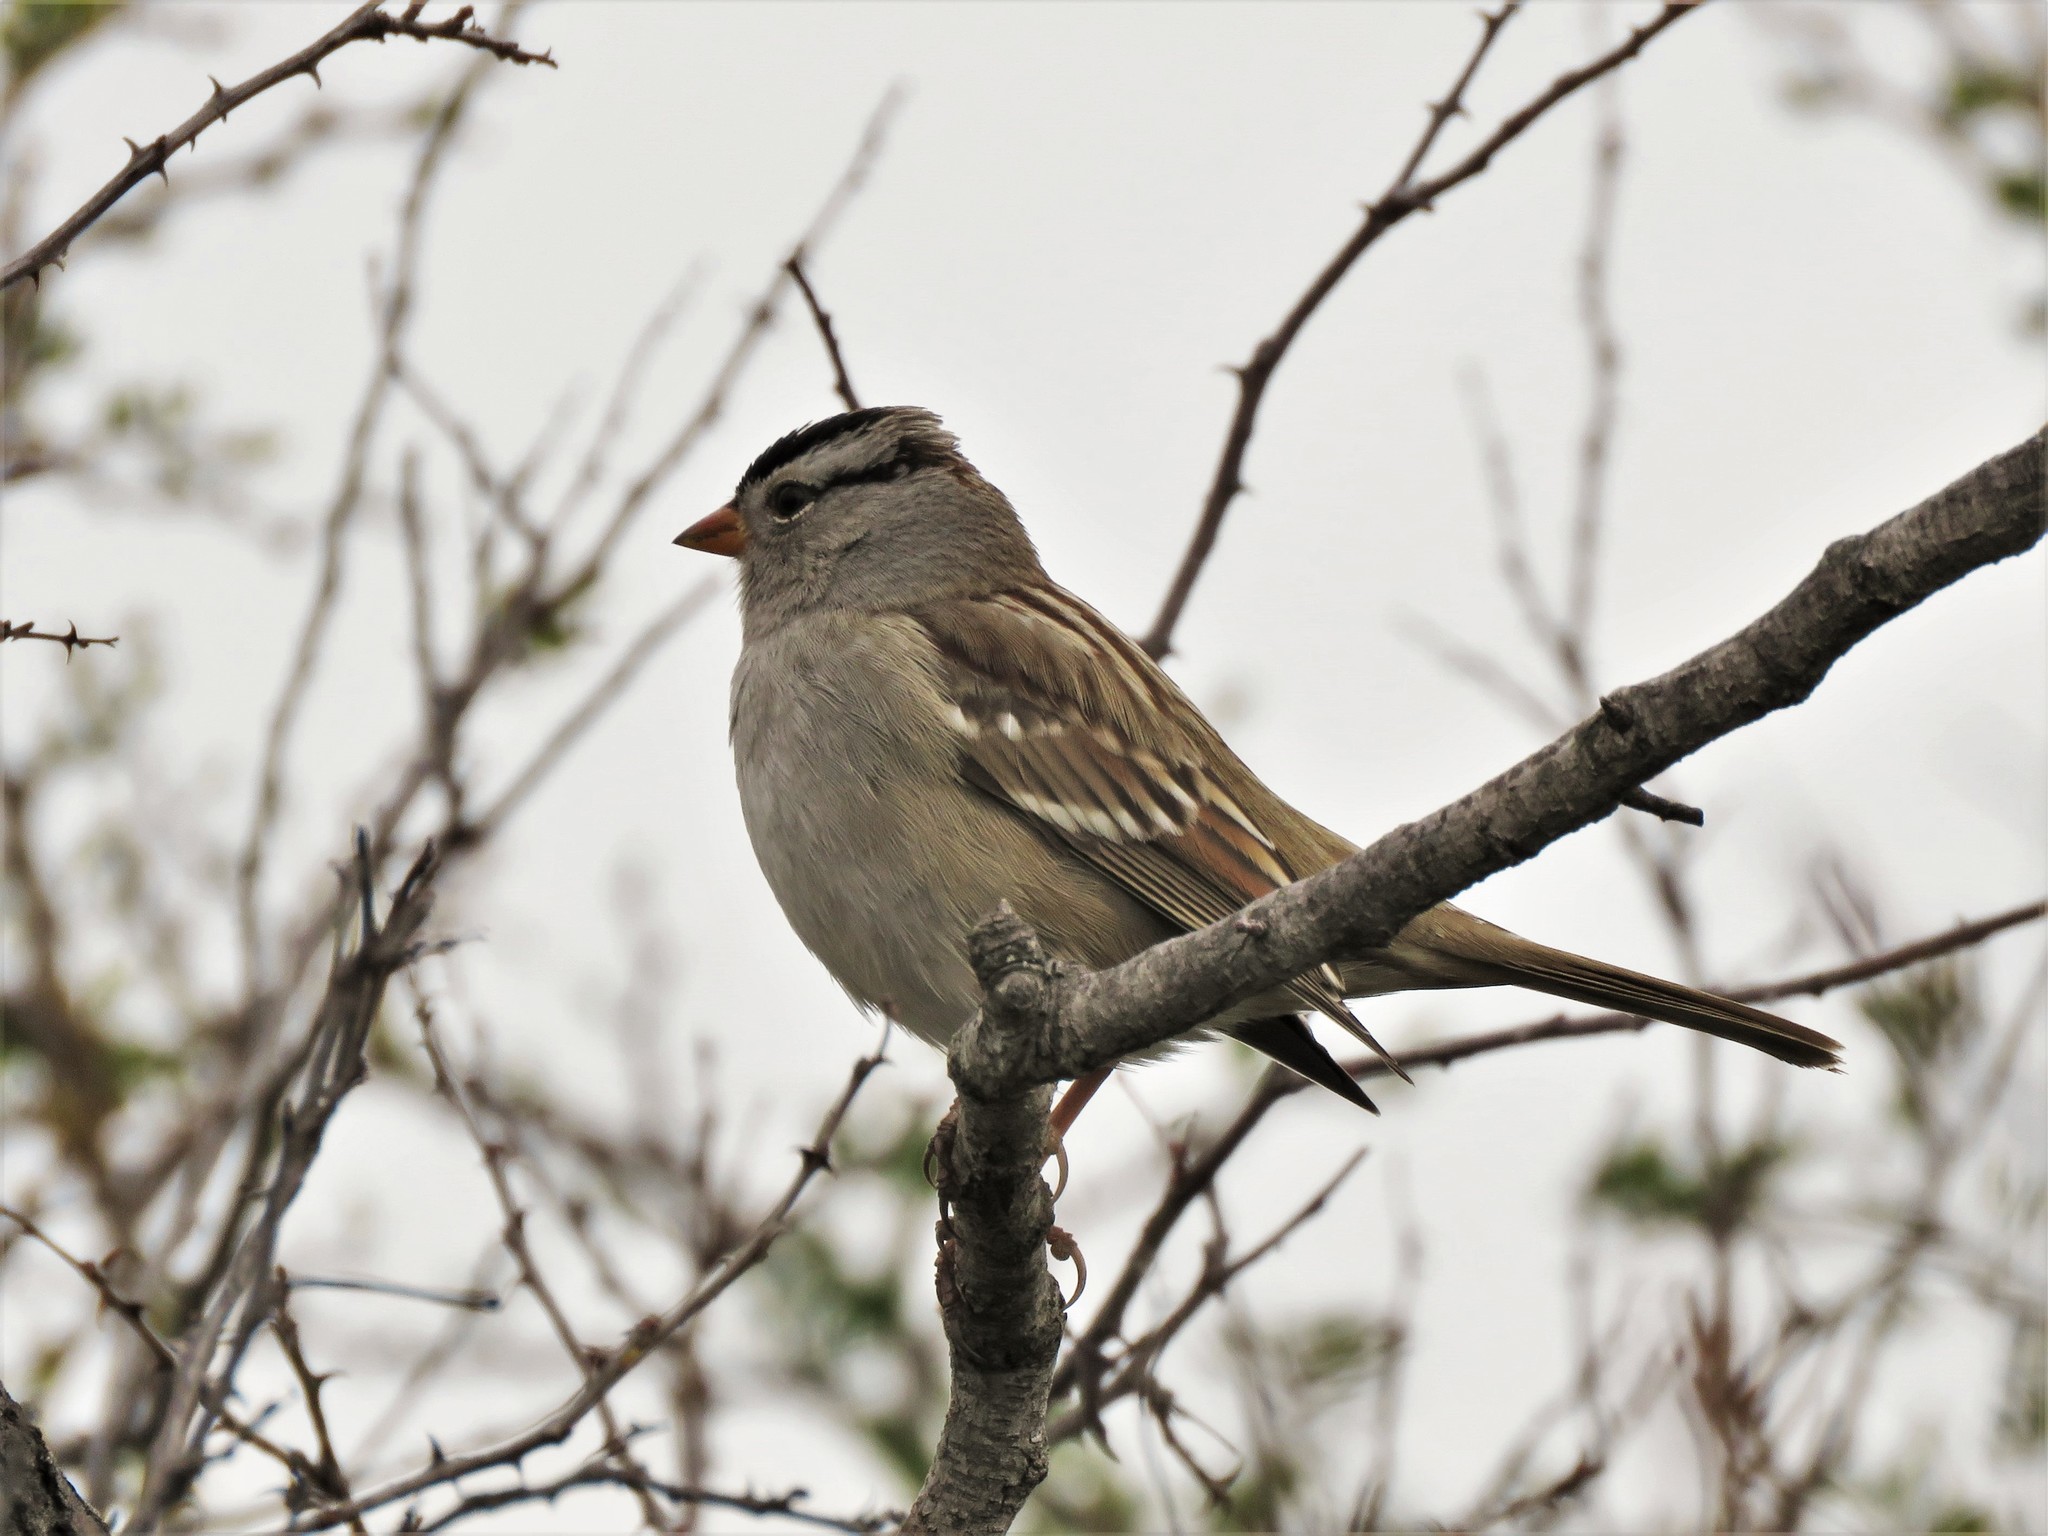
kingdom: Animalia
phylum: Chordata
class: Aves
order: Passeriformes
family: Passerellidae
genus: Zonotrichia
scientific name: Zonotrichia leucophrys
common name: White-crowned sparrow
